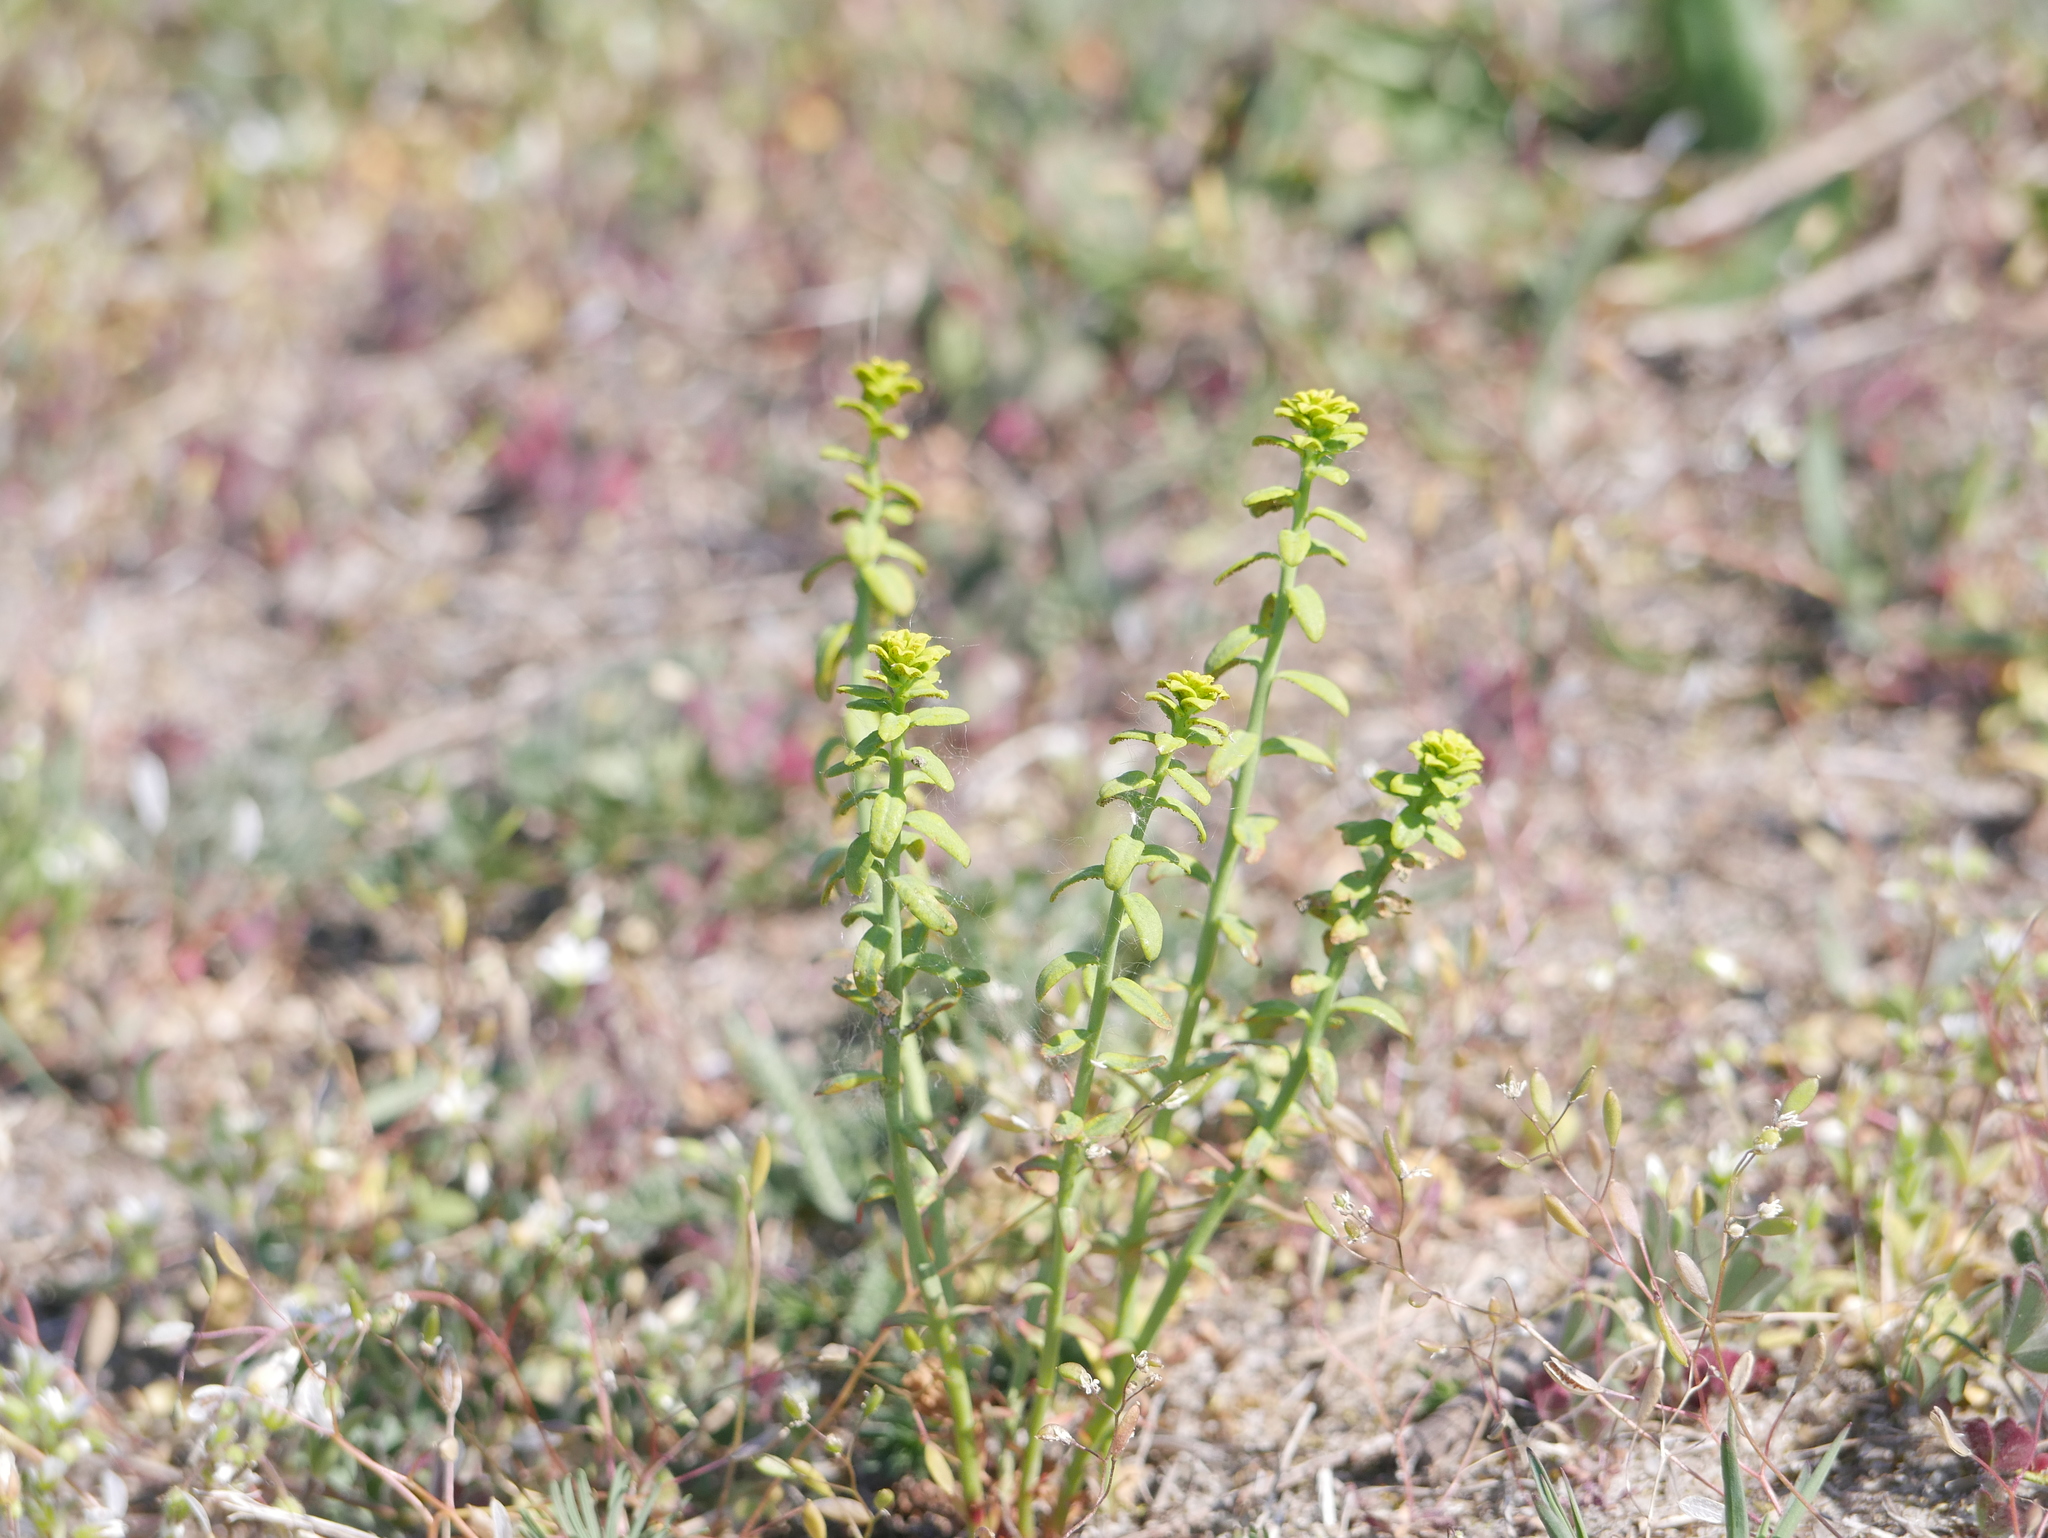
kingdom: Plantae
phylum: Tracheophyta
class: Magnoliopsida
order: Malpighiales
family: Euphorbiaceae
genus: Euphorbia
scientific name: Euphorbia cyparissias
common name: Cypress spurge
